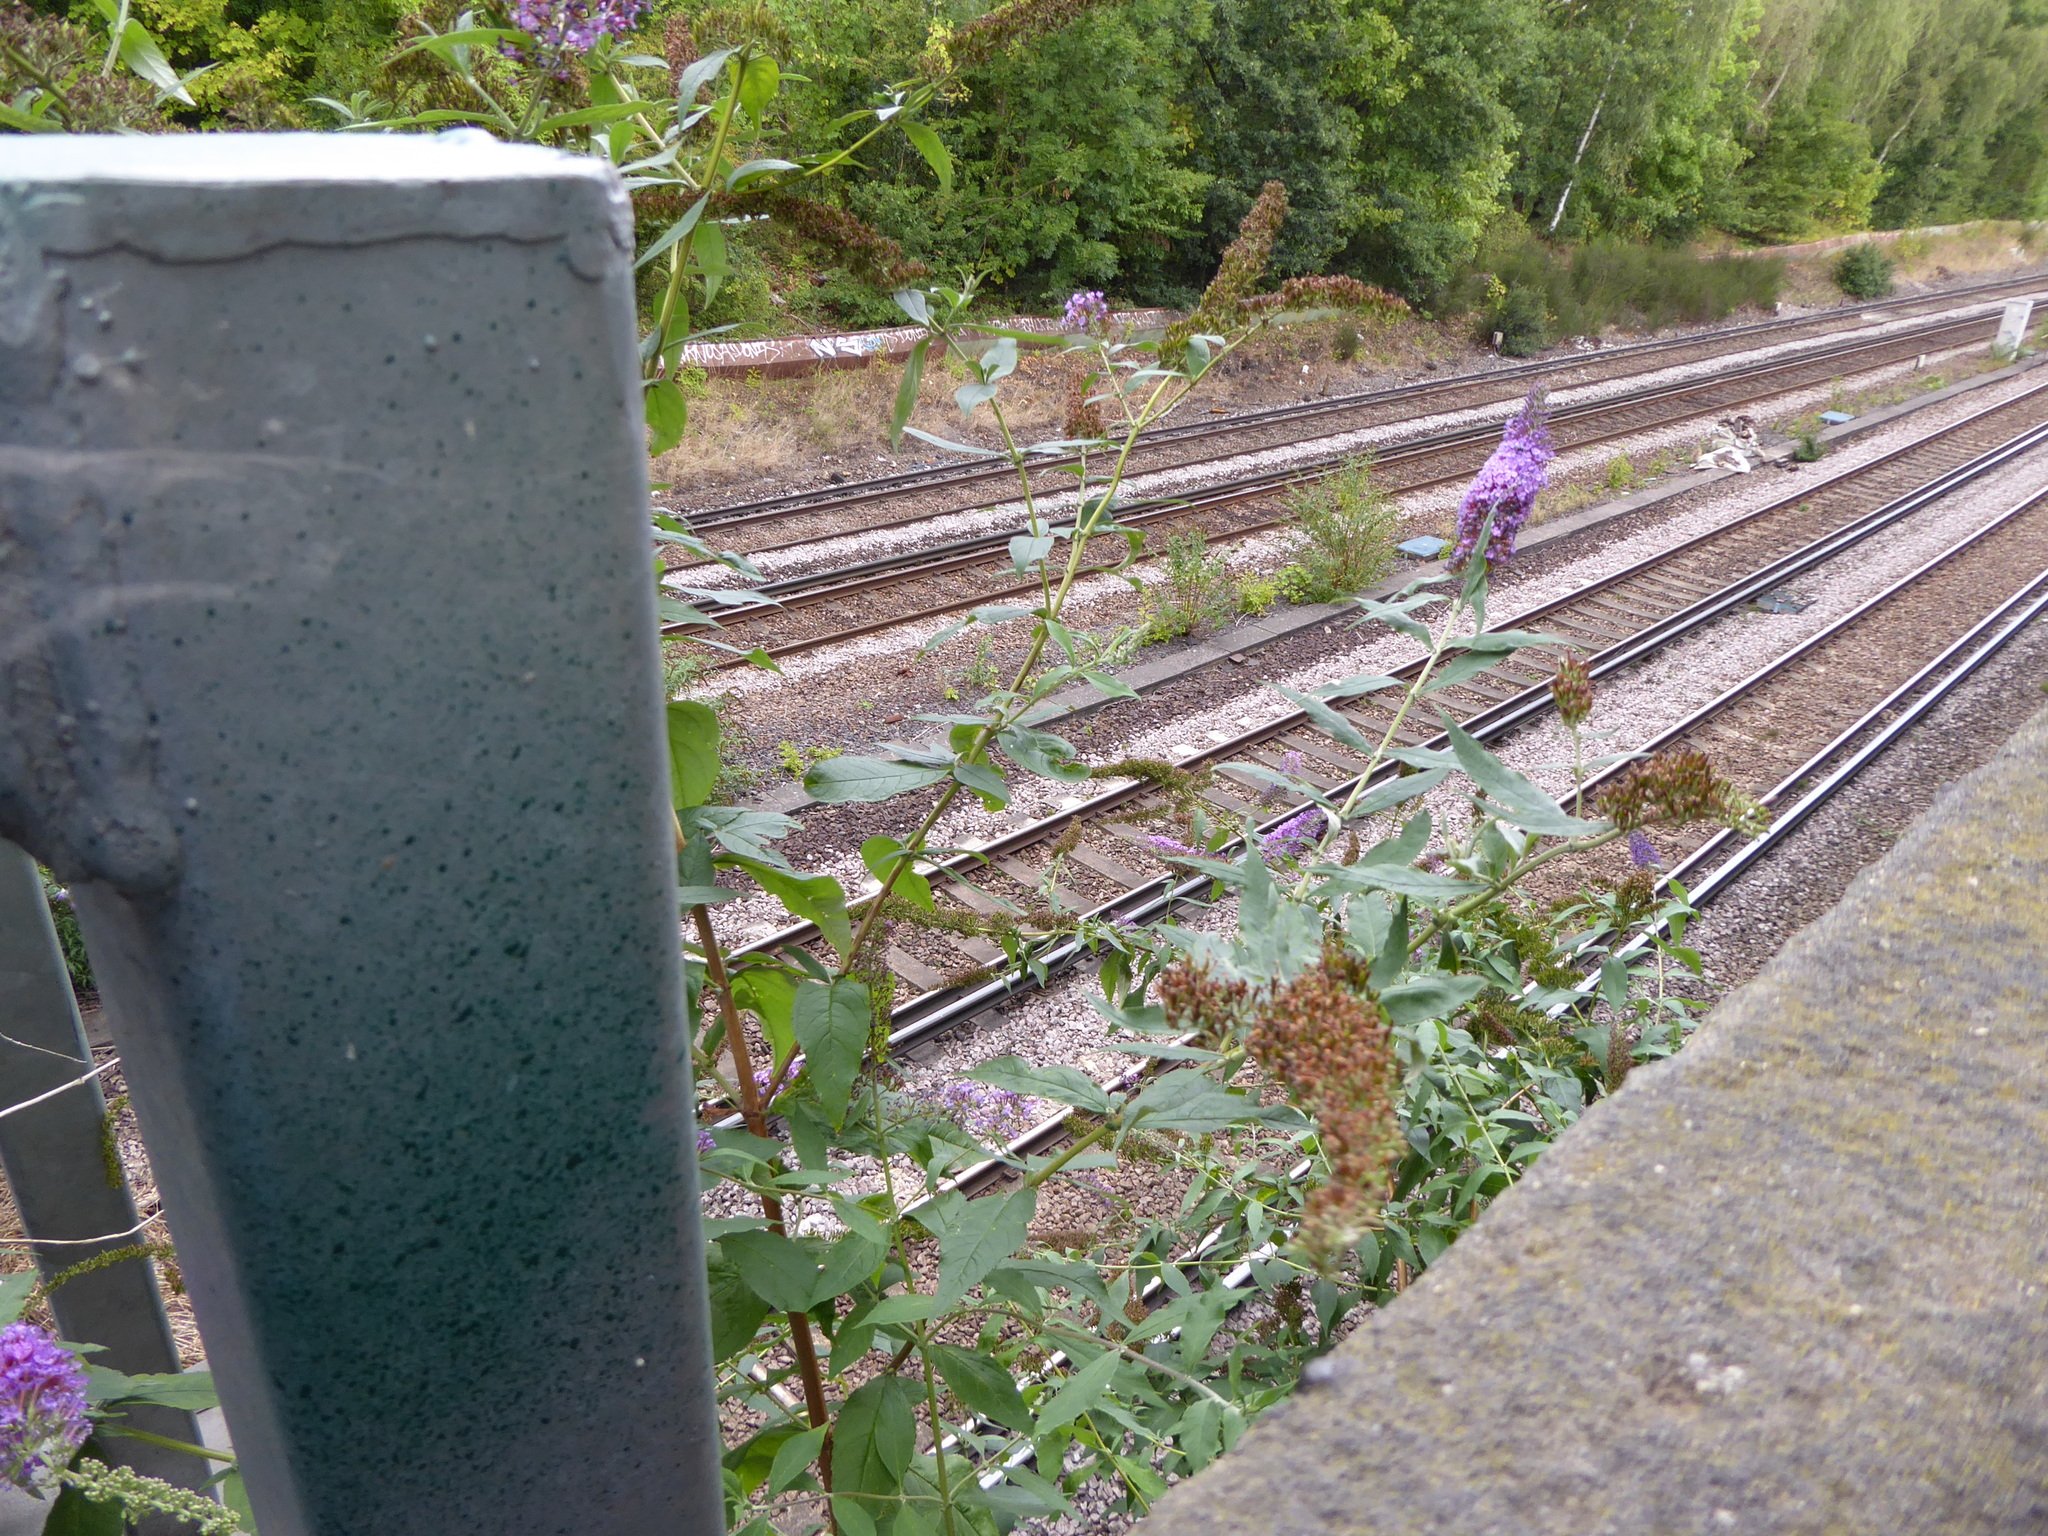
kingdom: Plantae
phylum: Tracheophyta
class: Magnoliopsida
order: Lamiales
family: Scrophulariaceae
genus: Buddleja
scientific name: Buddleja davidii
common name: Butterfly-bush
